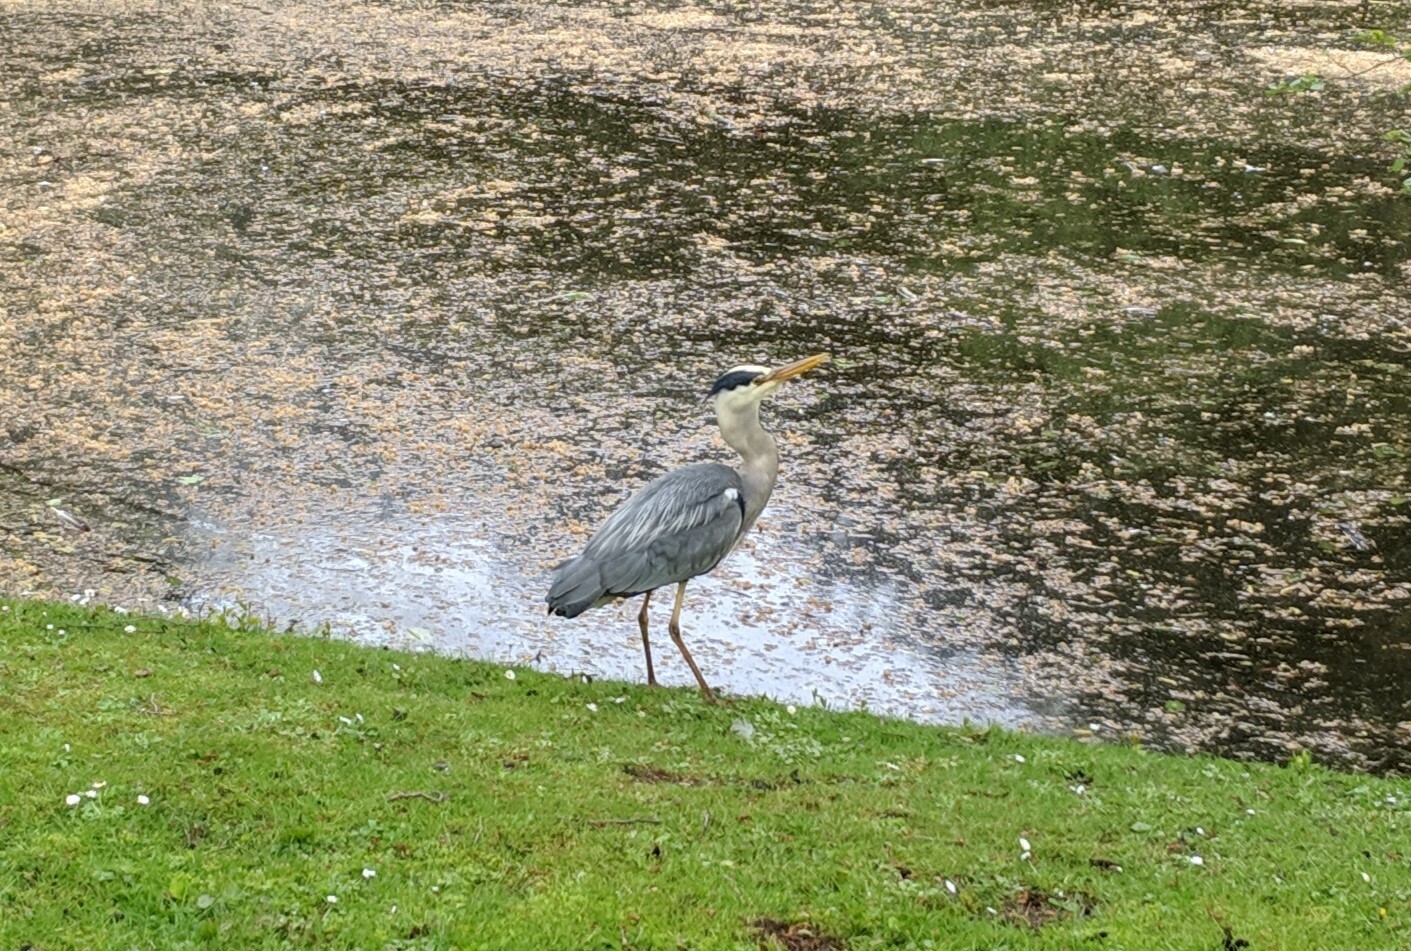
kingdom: Animalia
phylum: Chordata
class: Aves
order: Pelecaniformes
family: Ardeidae
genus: Ardea
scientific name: Ardea cinerea
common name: Grey heron
